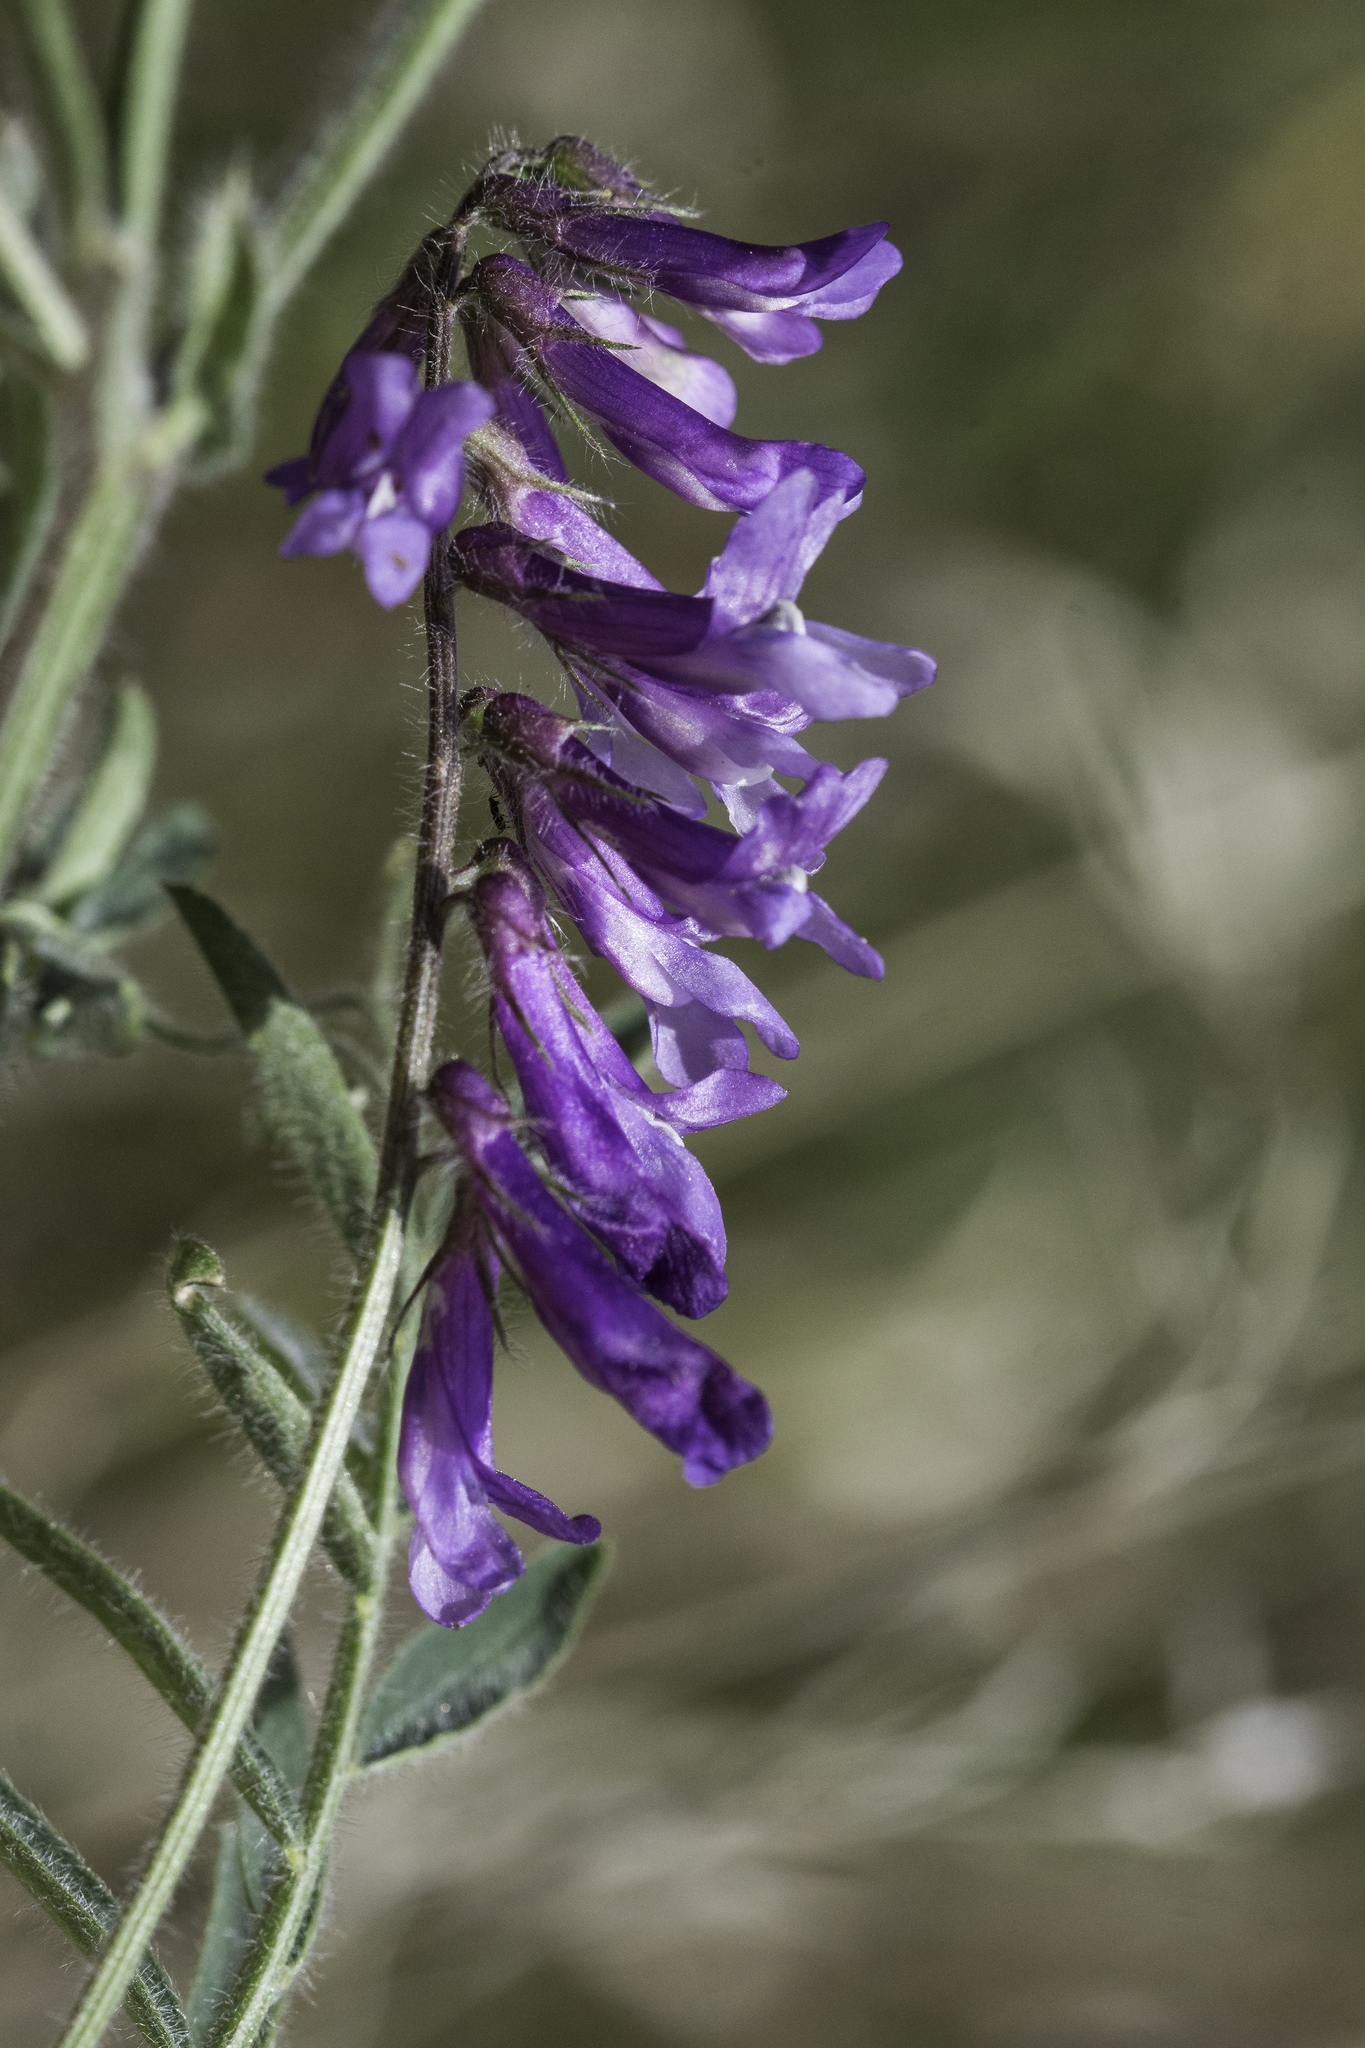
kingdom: Plantae
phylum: Tracheophyta
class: Magnoliopsida
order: Fabales
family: Fabaceae
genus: Vicia
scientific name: Vicia villosa
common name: Fodder vetch
